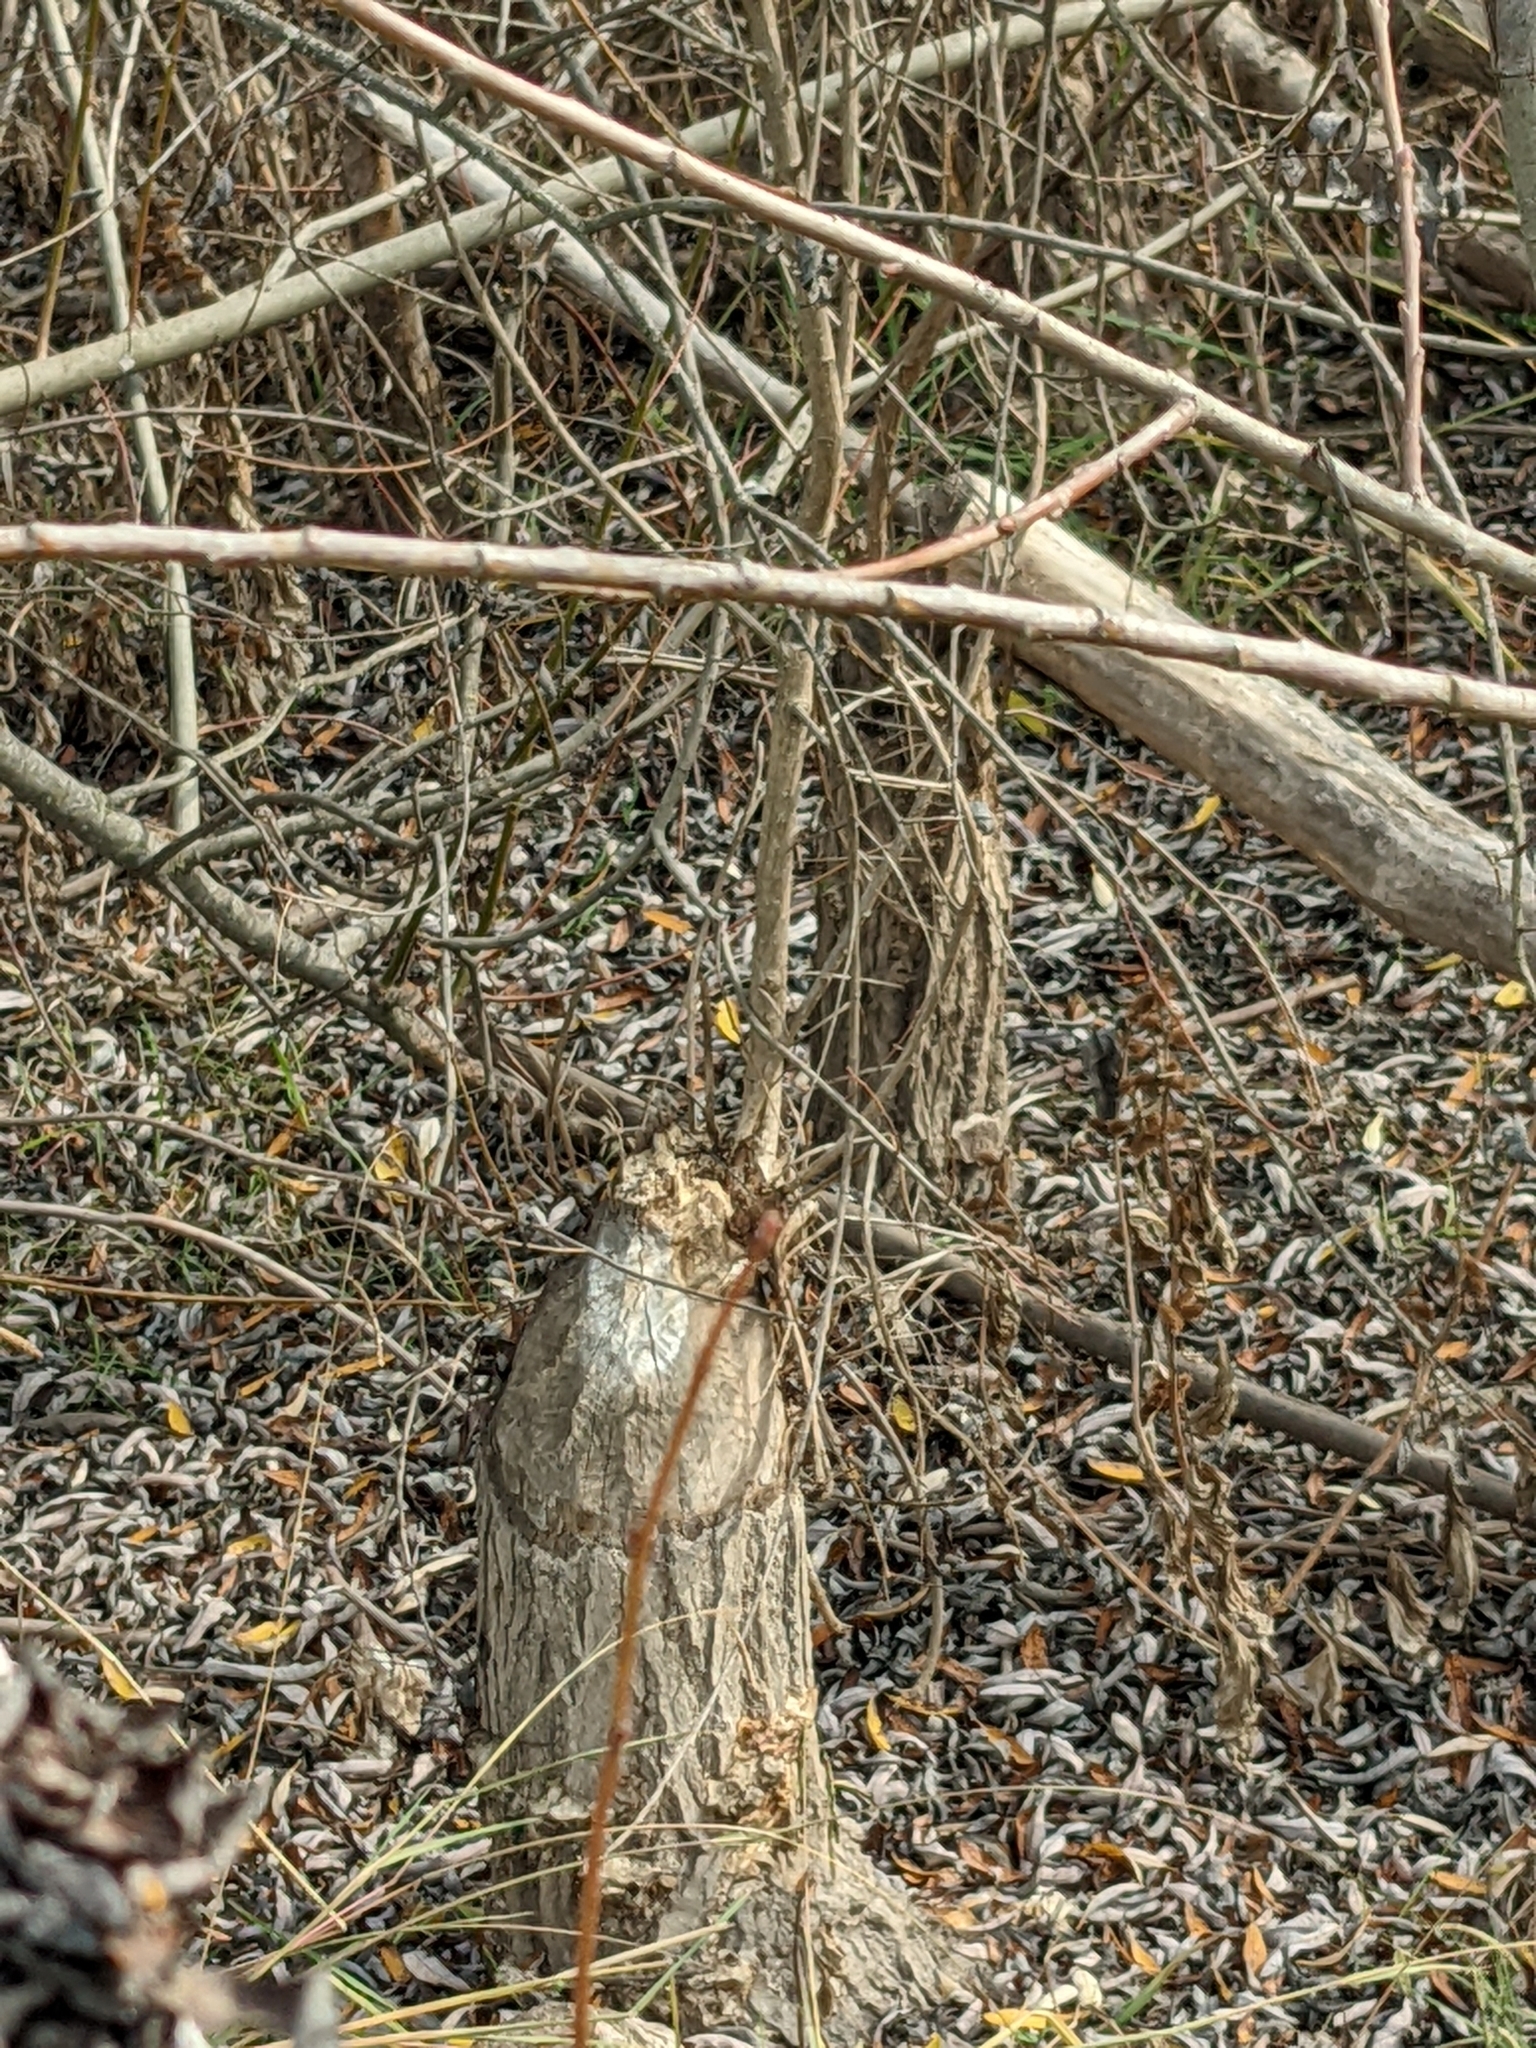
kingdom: Animalia
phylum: Chordata
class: Mammalia
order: Rodentia
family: Castoridae
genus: Castor
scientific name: Castor canadensis
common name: American beaver
